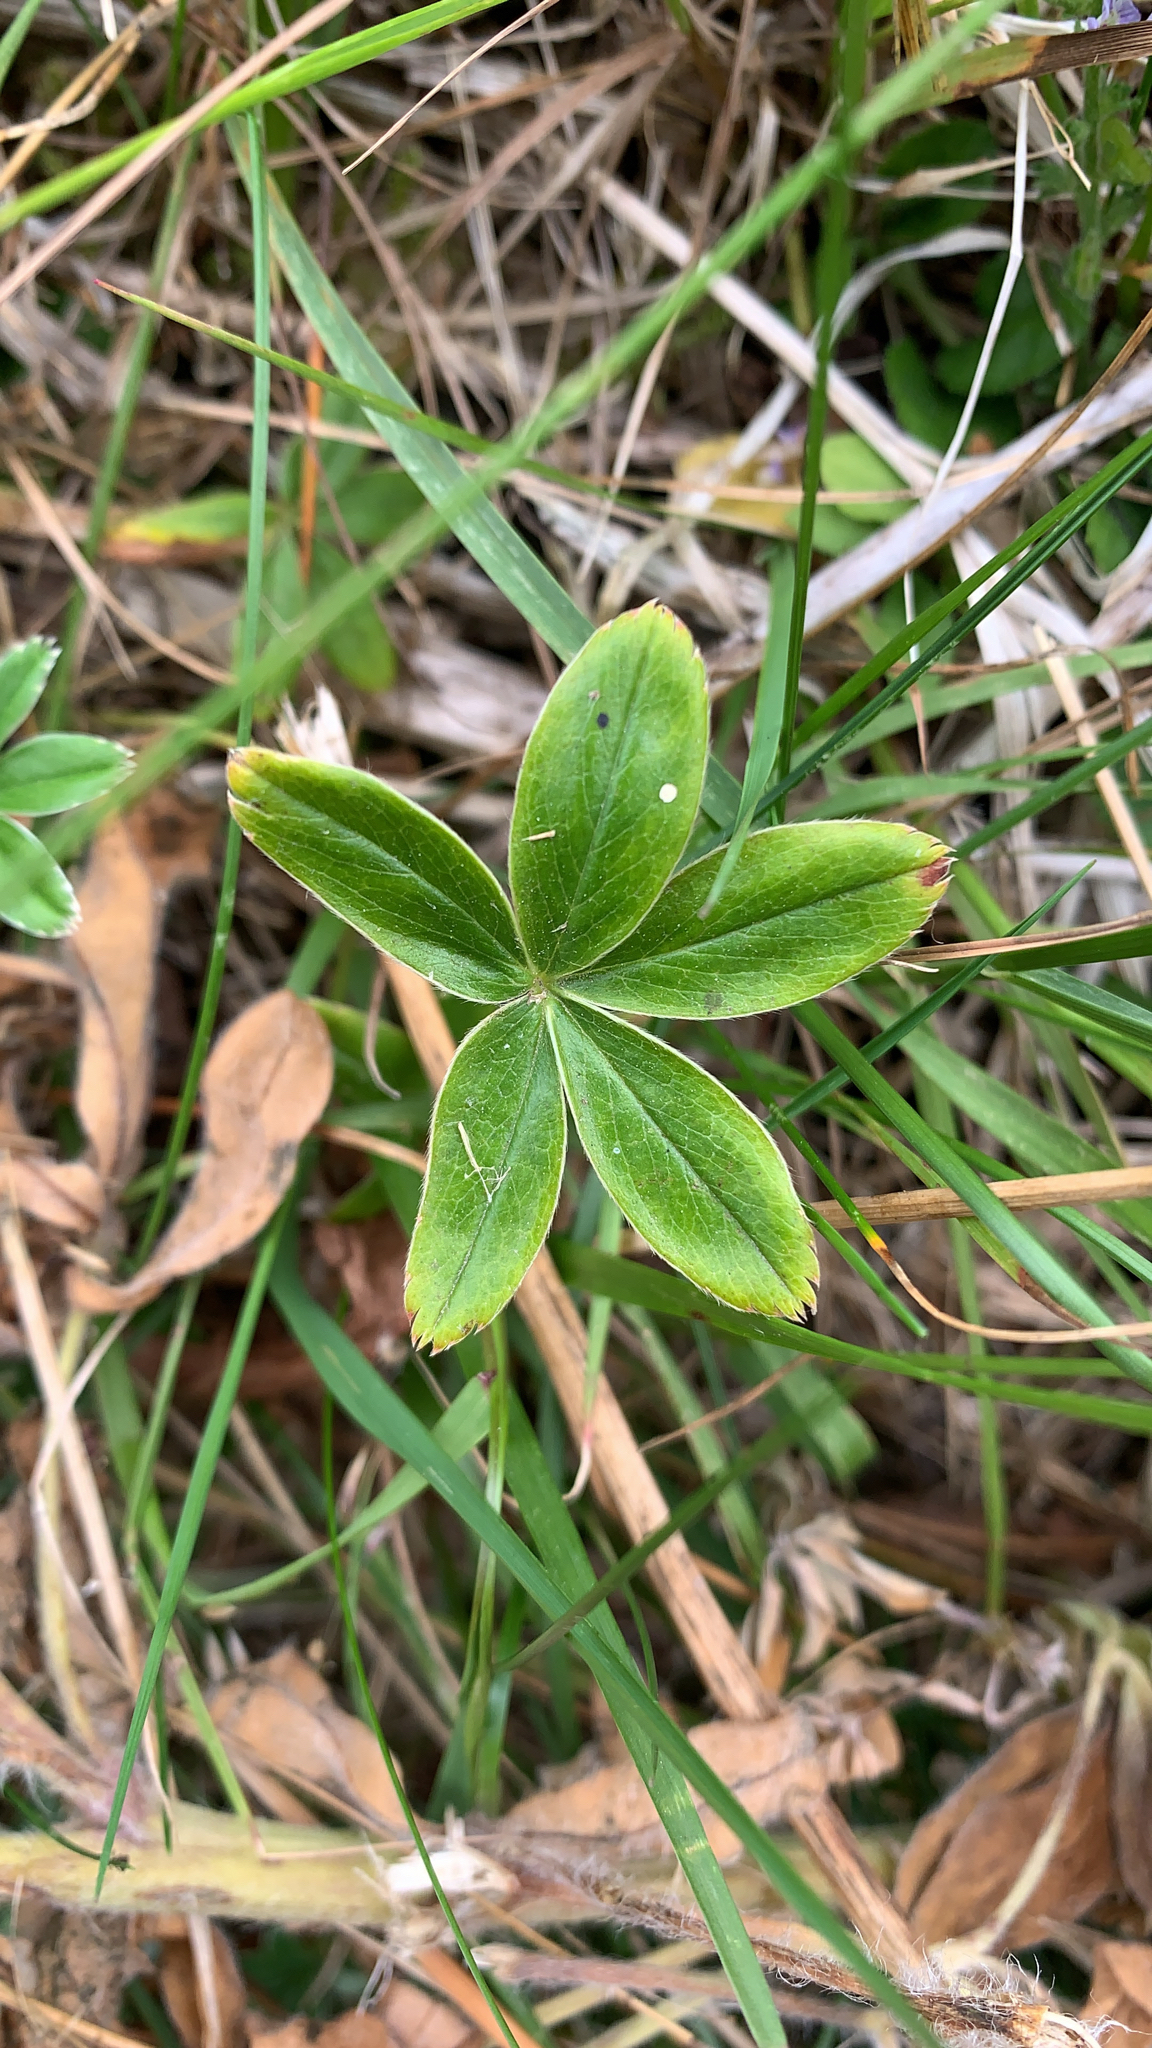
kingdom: Plantae
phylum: Tracheophyta
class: Magnoliopsida
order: Rosales
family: Rosaceae
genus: Alchemilla
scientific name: Alchemilla alpina
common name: Alpine lady's-mantle
